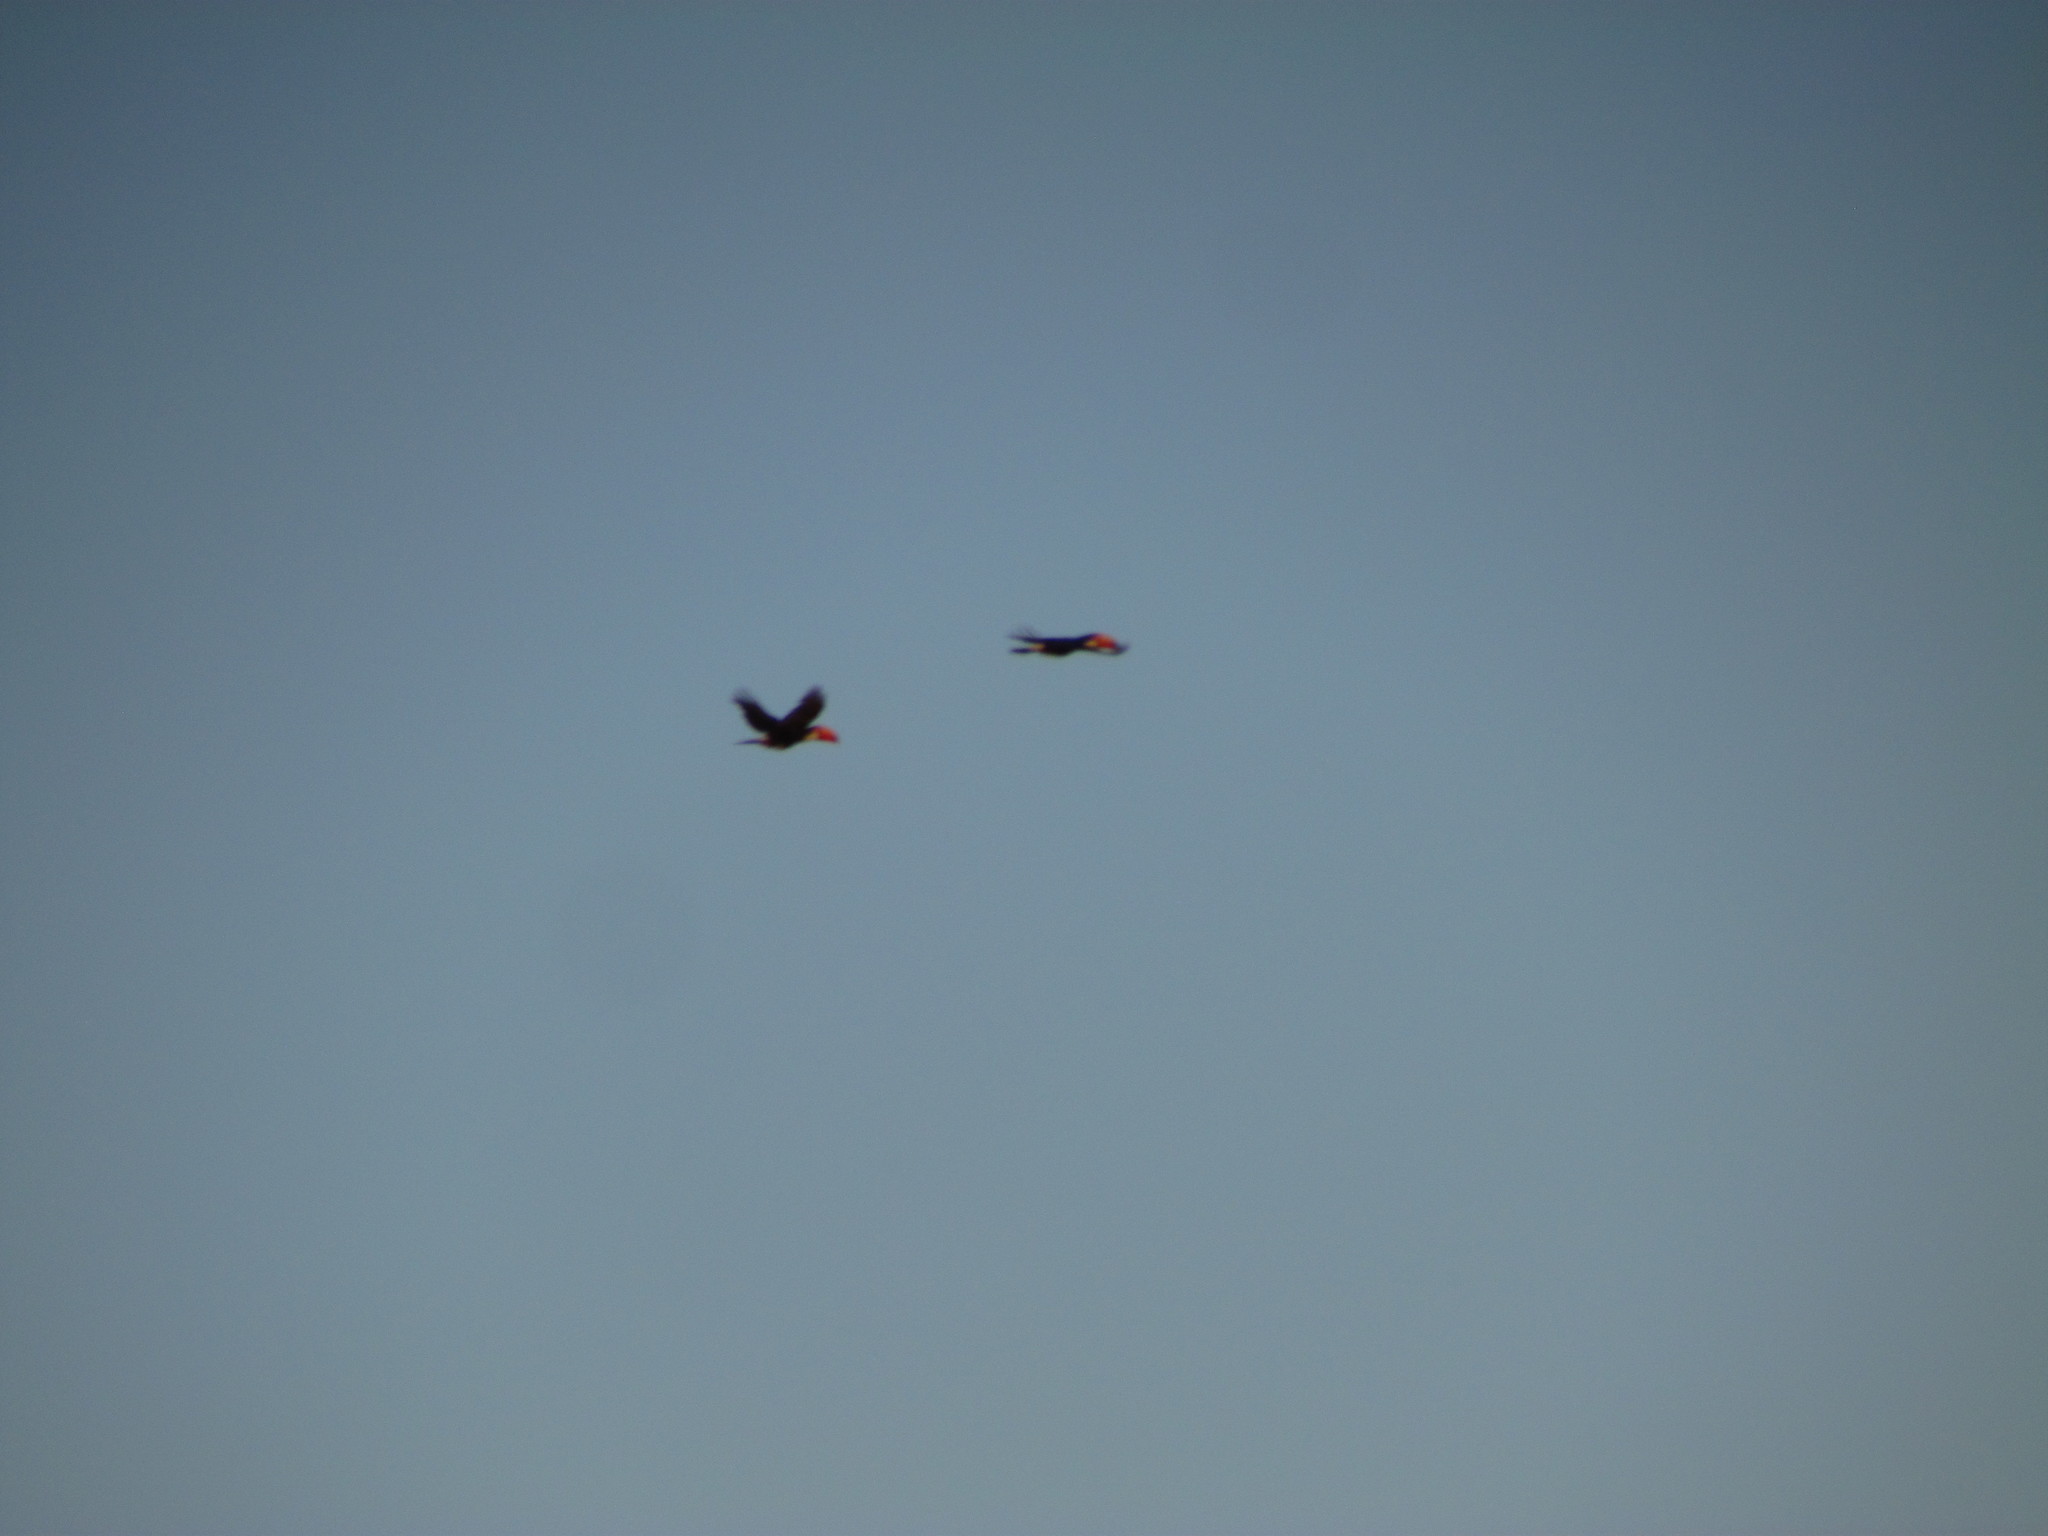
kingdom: Animalia
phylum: Chordata
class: Aves
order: Piciformes
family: Ramphastidae
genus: Ramphastos
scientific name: Ramphastos toco
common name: Toco toucan
